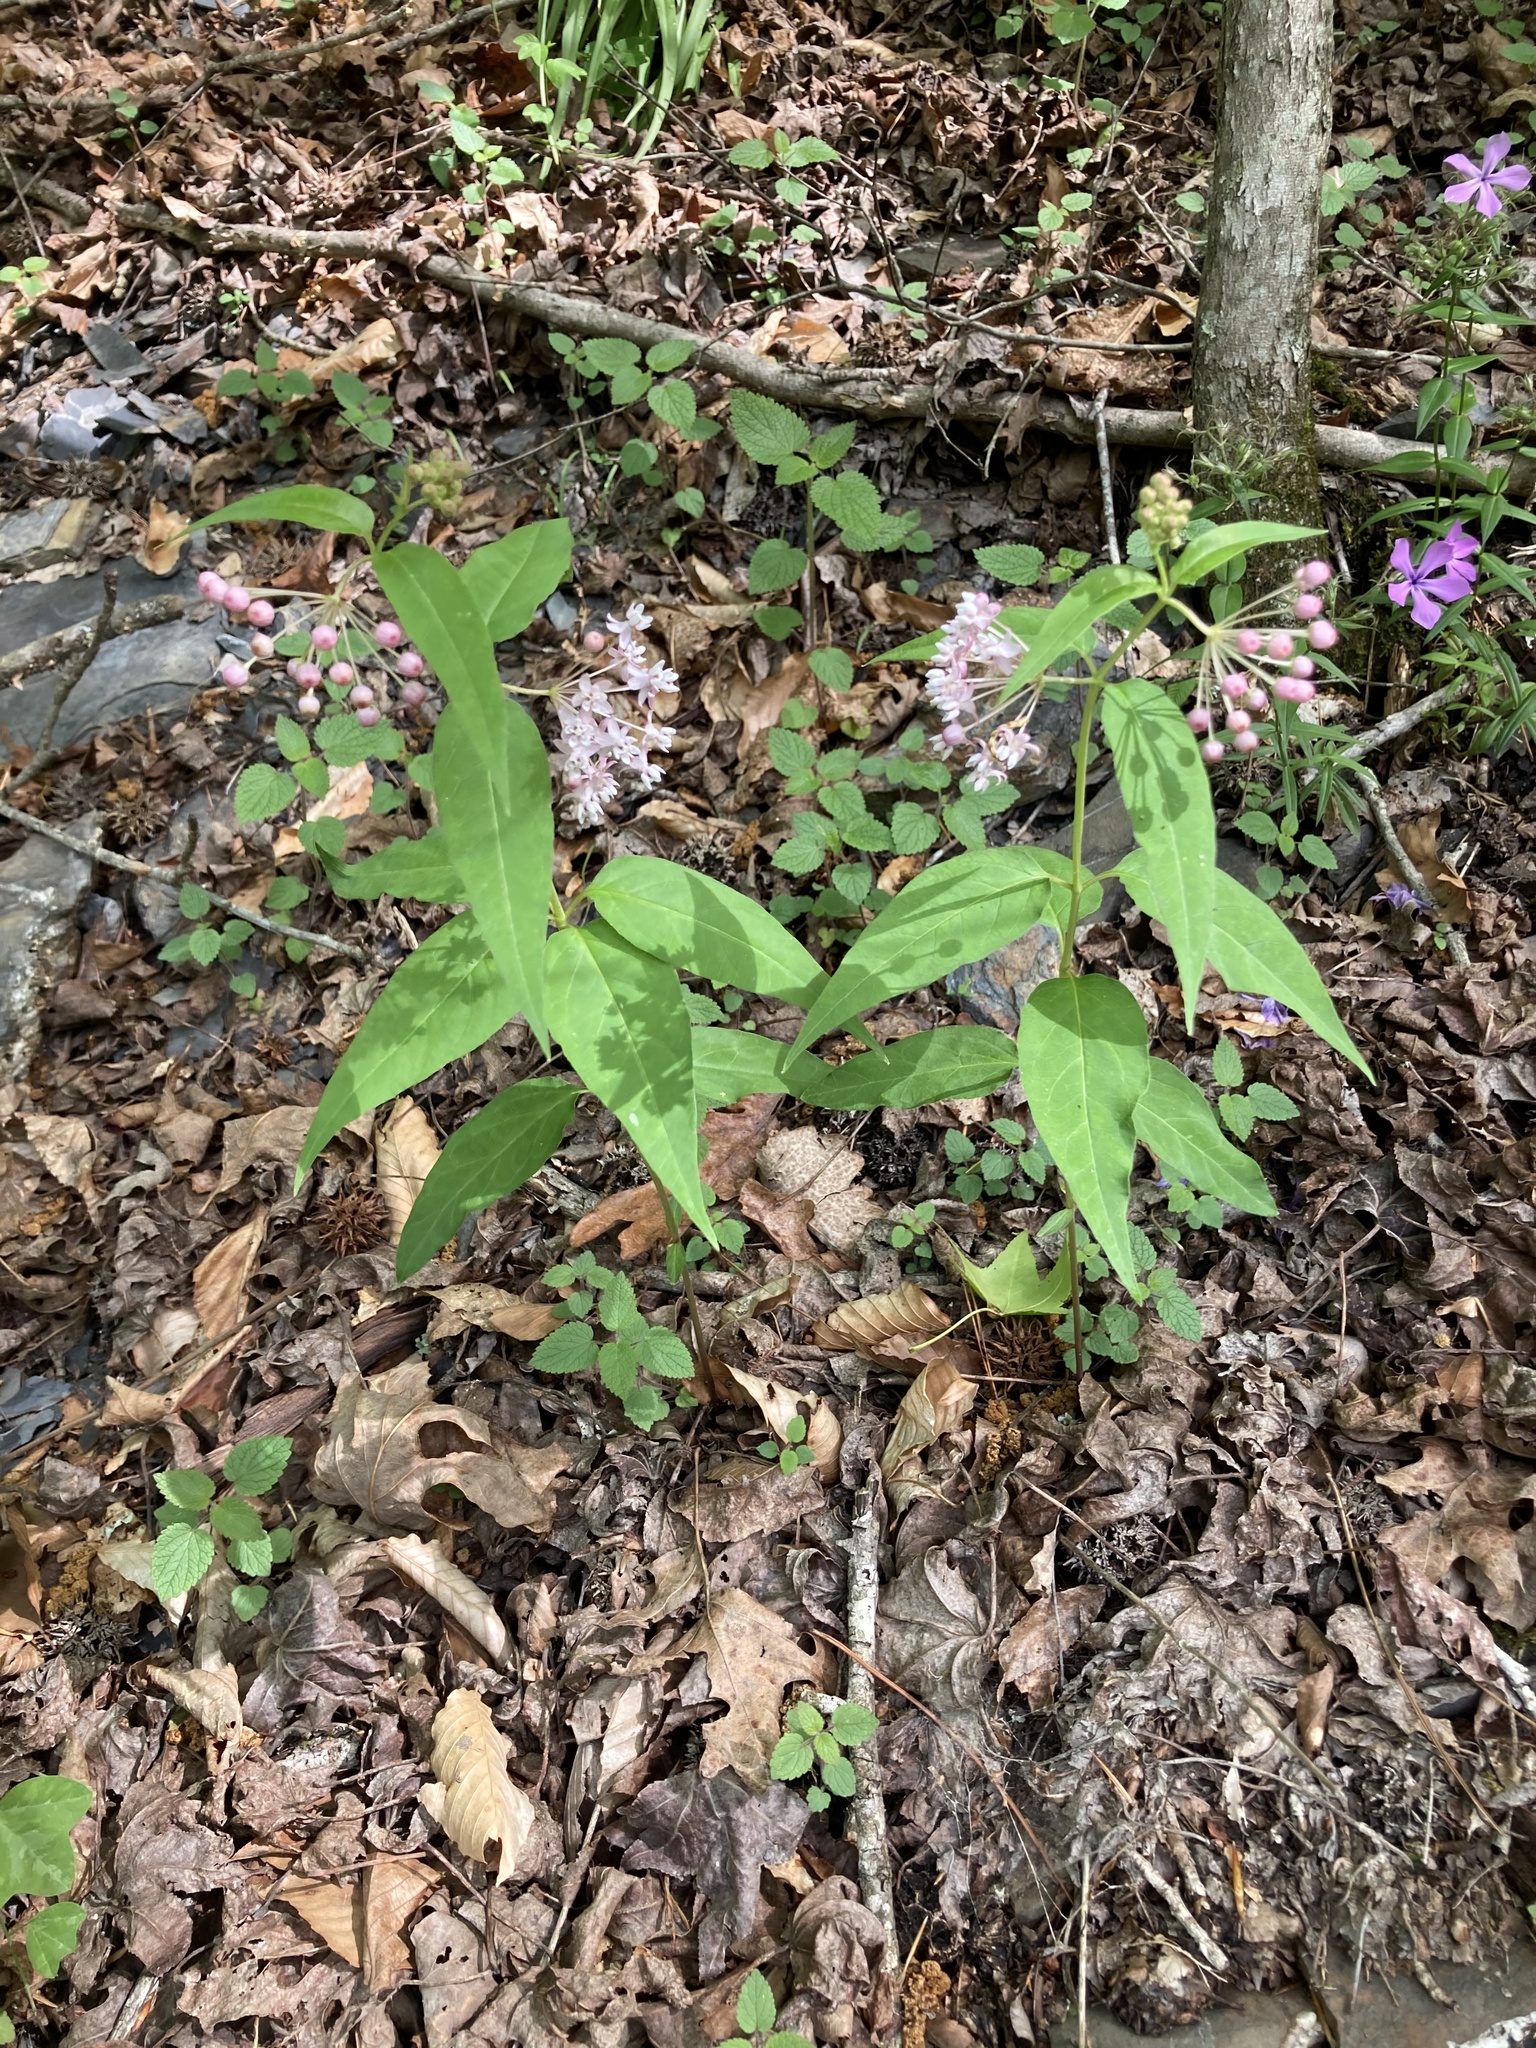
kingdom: Plantae
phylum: Tracheophyta
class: Magnoliopsida
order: Gentianales
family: Apocynaceae
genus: Asclepias
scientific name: Asclepias quadrifolia
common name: Whorled milkweed
